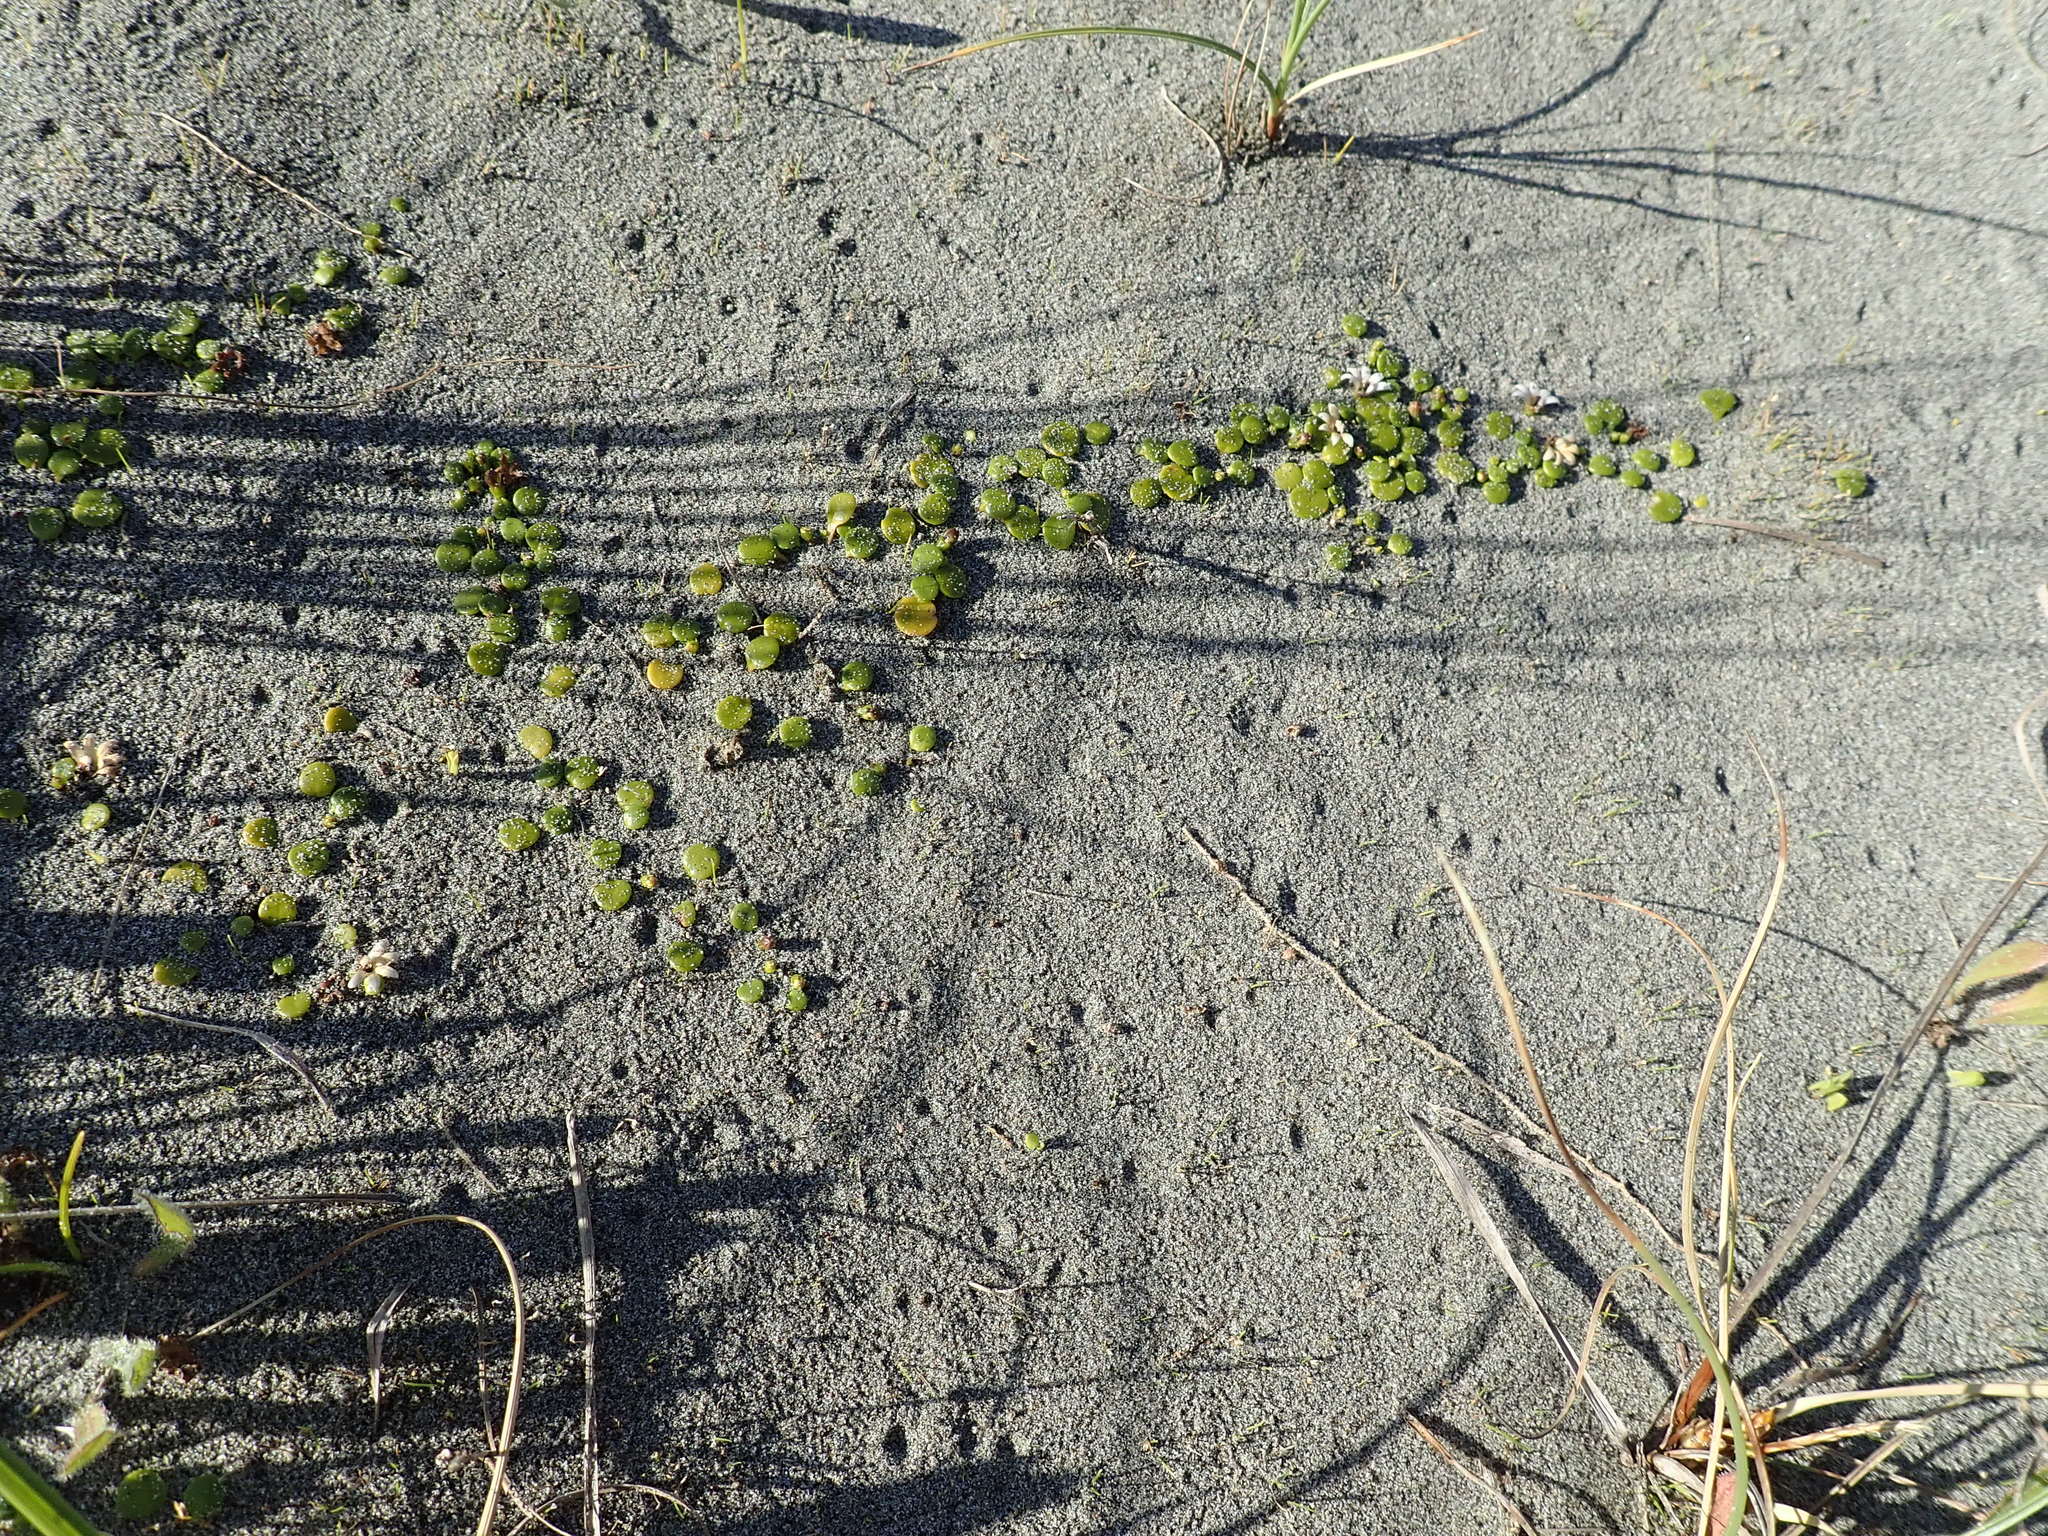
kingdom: Plantae
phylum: Tracheophyta
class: Magnoliopsida
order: Asterales
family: Goodeniaceae
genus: Goodenia
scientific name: Goodenia heenanii
